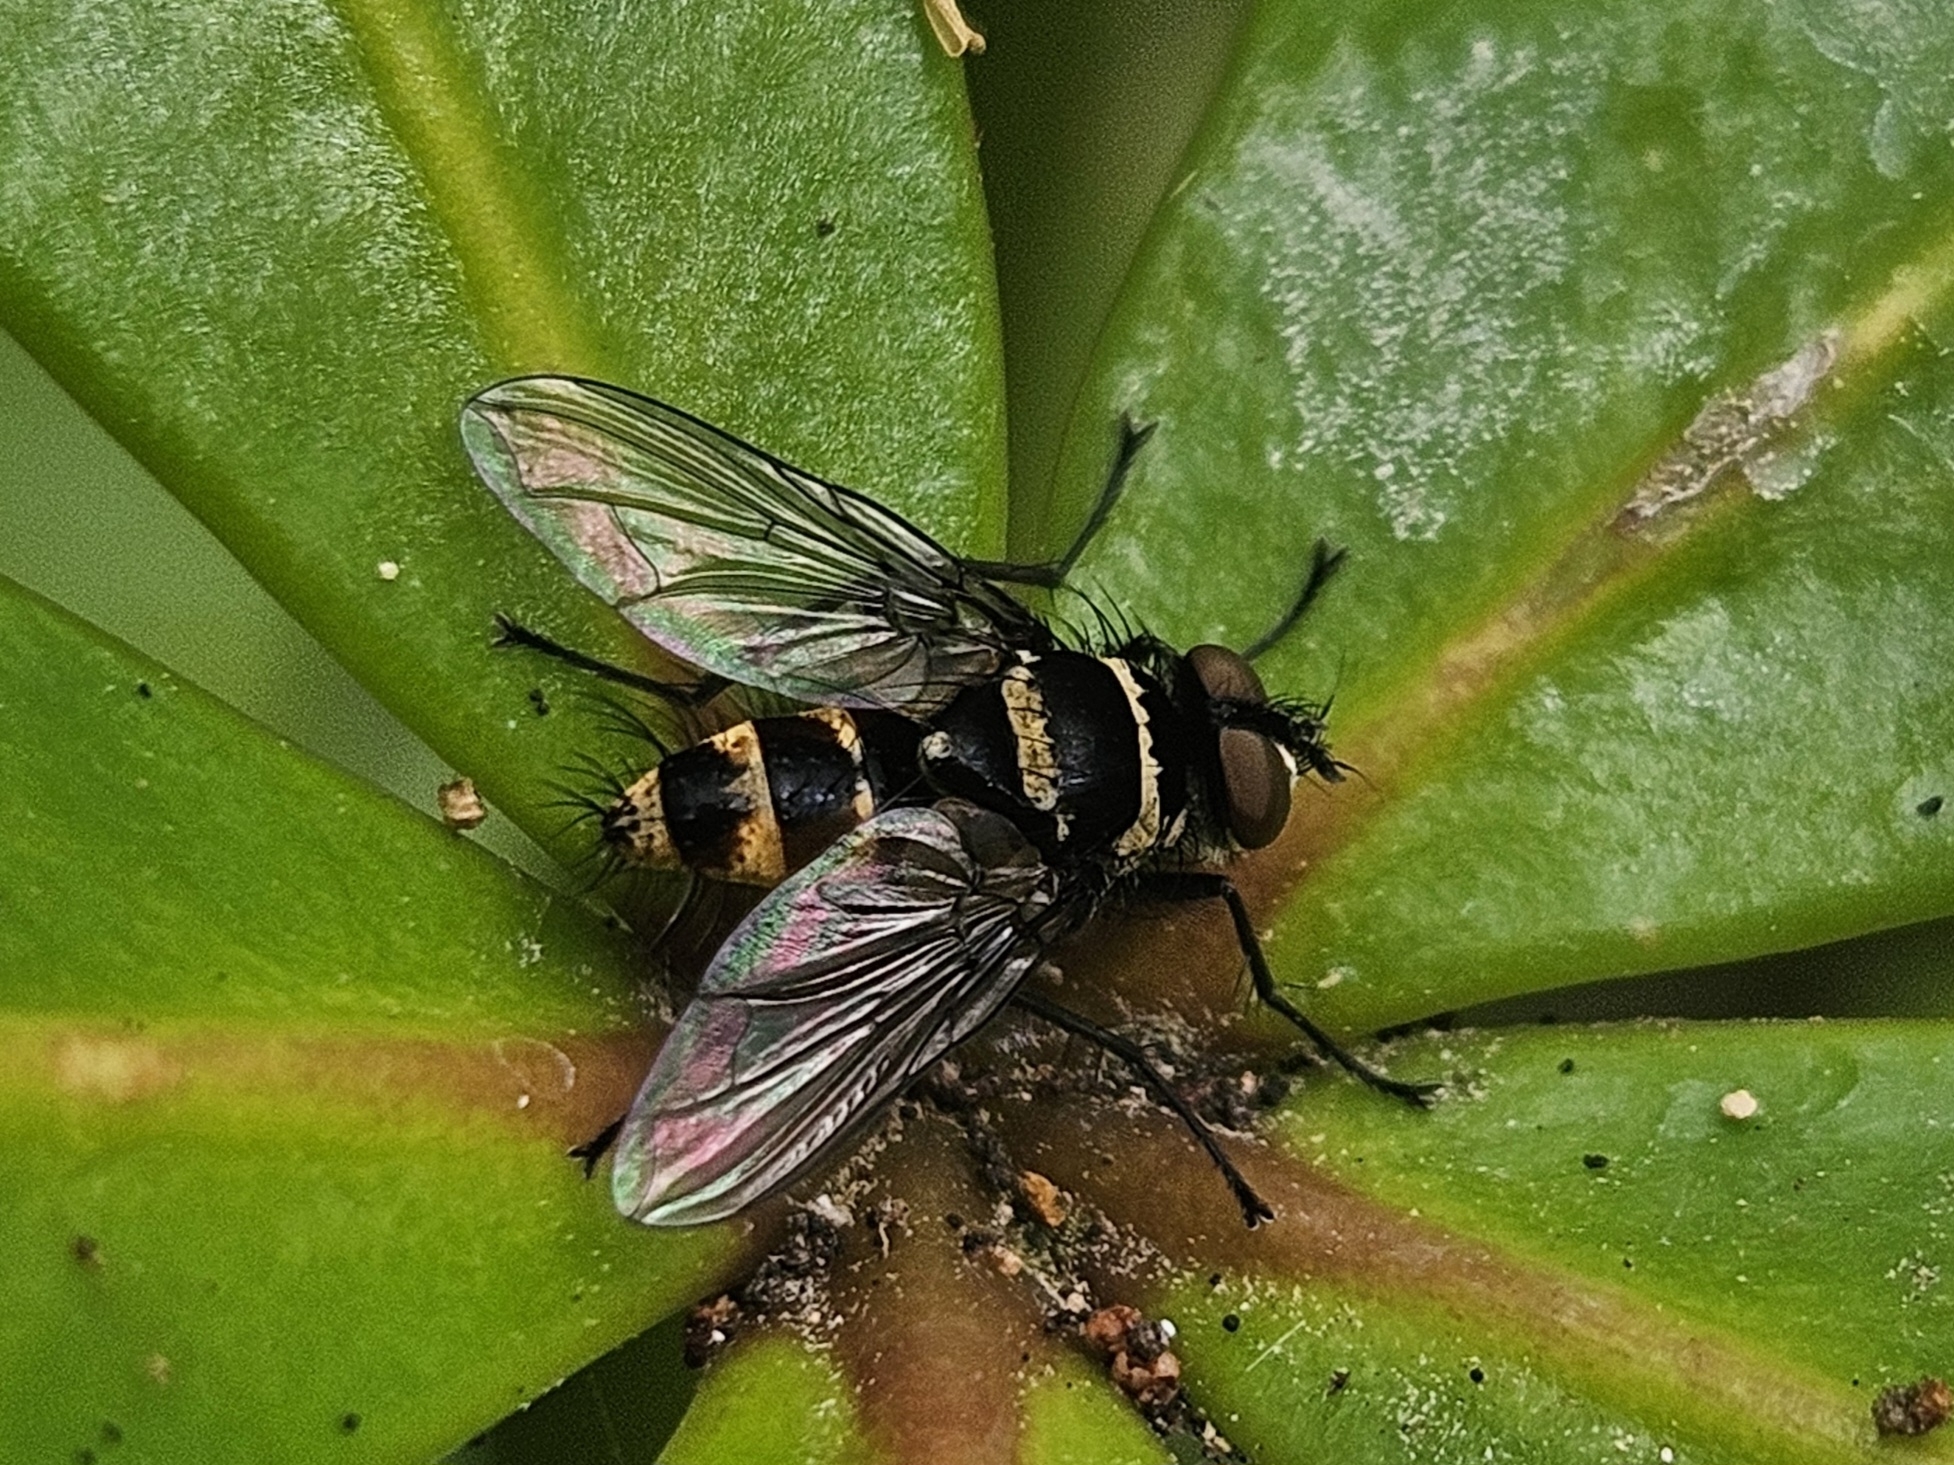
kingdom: Animalia
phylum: Arthropoda
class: Insecta
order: Diptera
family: Tachinidae
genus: Trigonospila
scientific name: Trigonospila brevifacies
